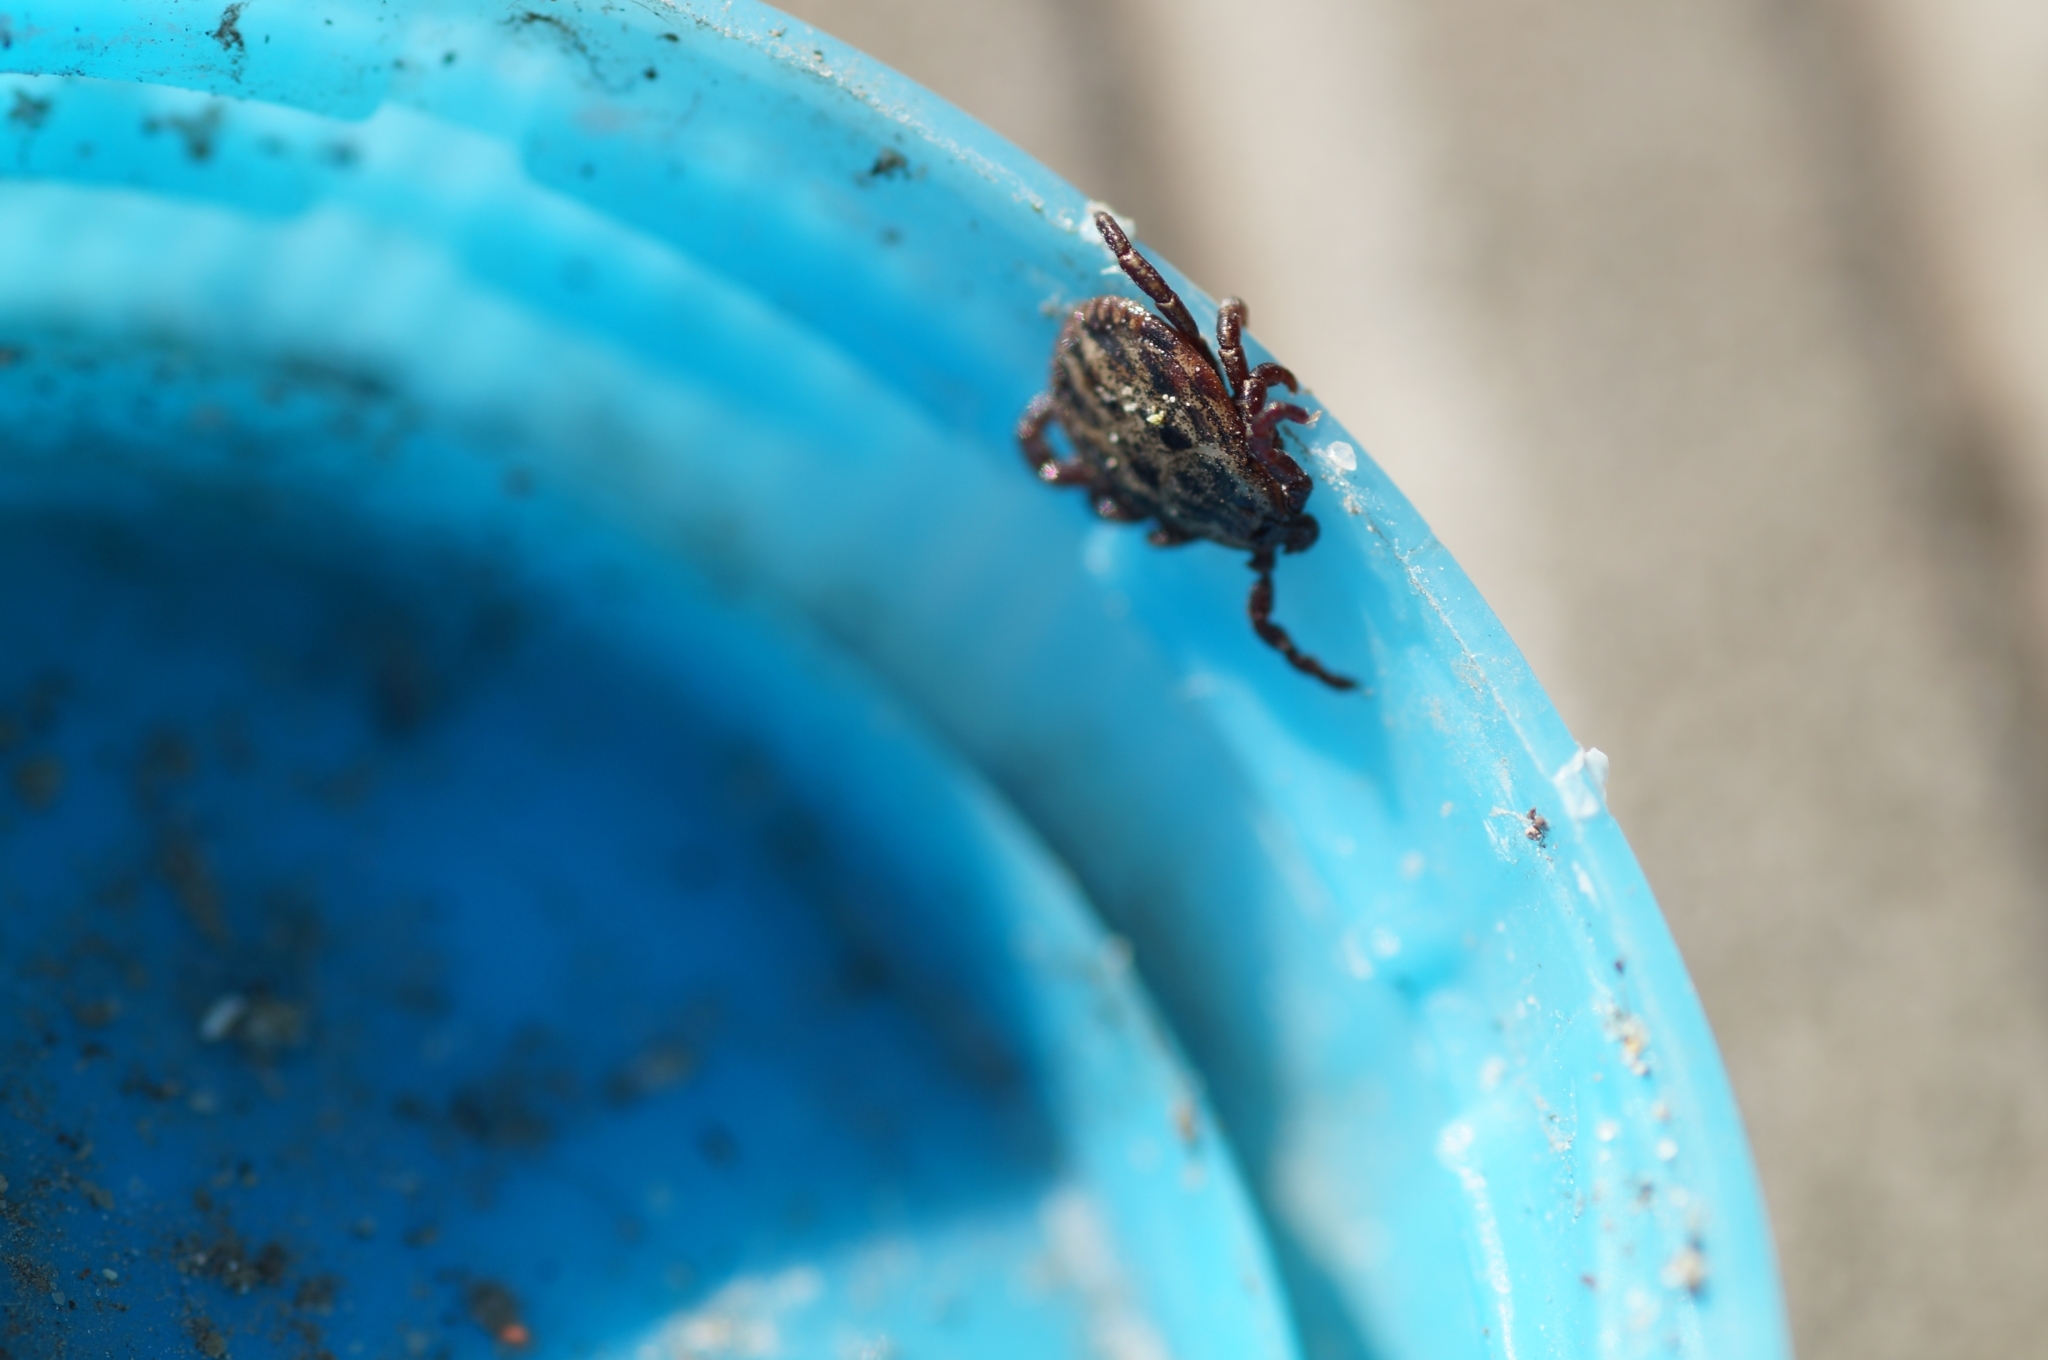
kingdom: Animalia
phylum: Arthropoda
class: Arachnida
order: Ixodida
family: Ixodidae
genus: Dermacentor
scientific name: Dermacentor reticulatus
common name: Ornate cow tick
